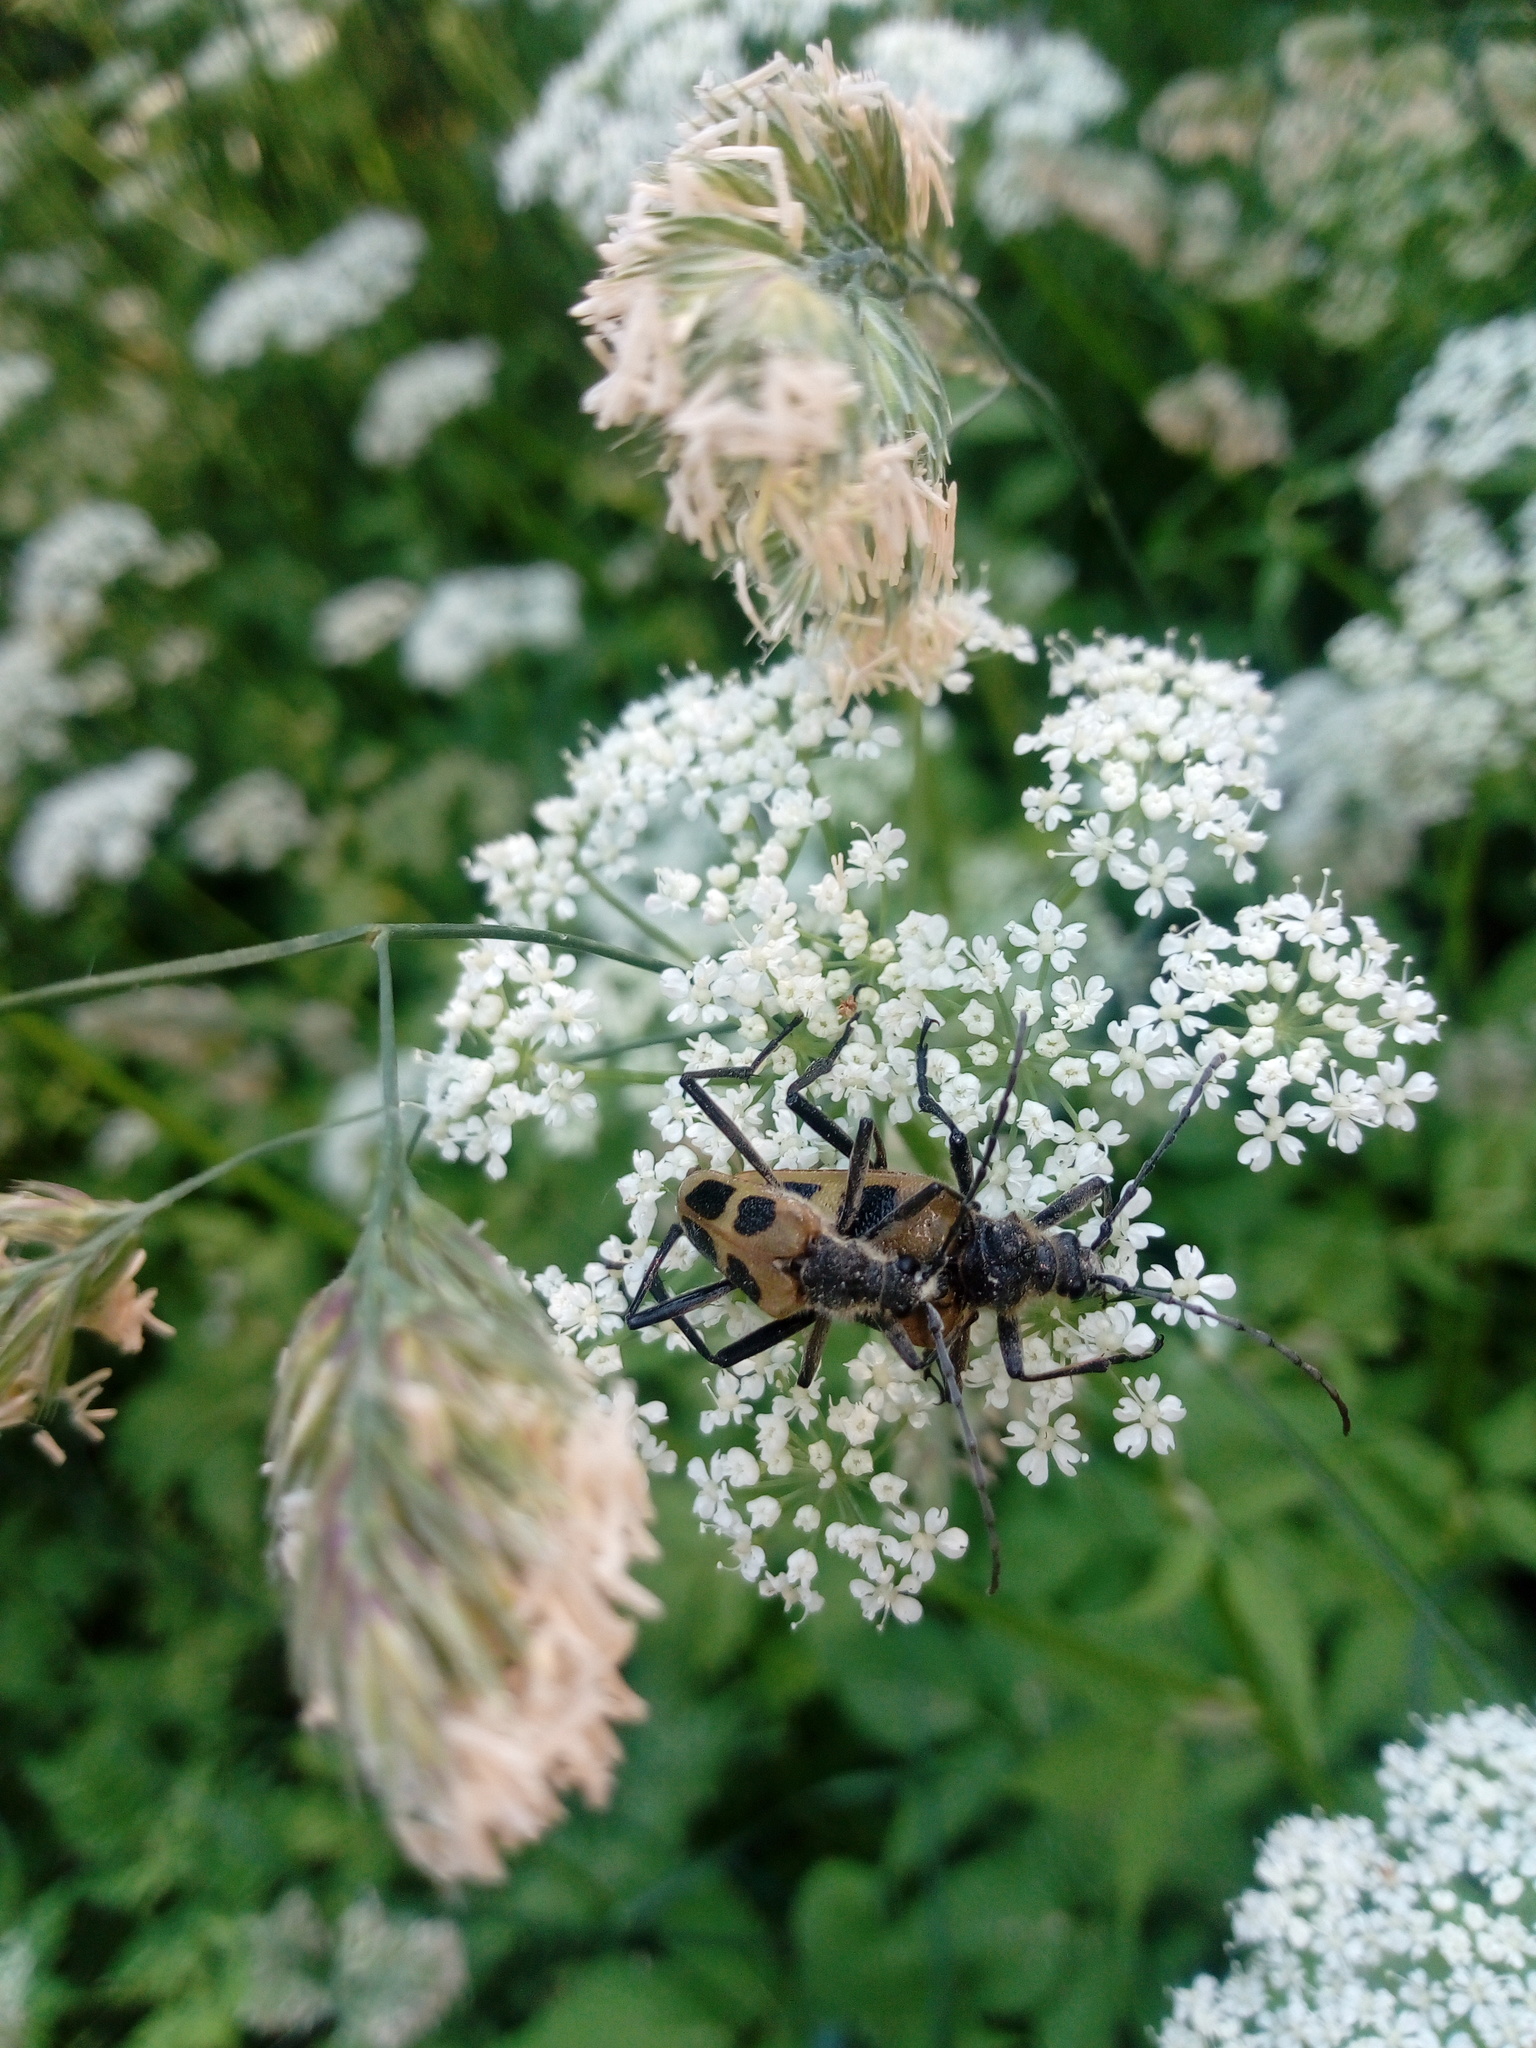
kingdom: Animalia
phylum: Arthropoda
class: Insecta
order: Coleoptera
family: Cerambycidae
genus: Pachyta
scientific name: Pachyta quadrimaculata
